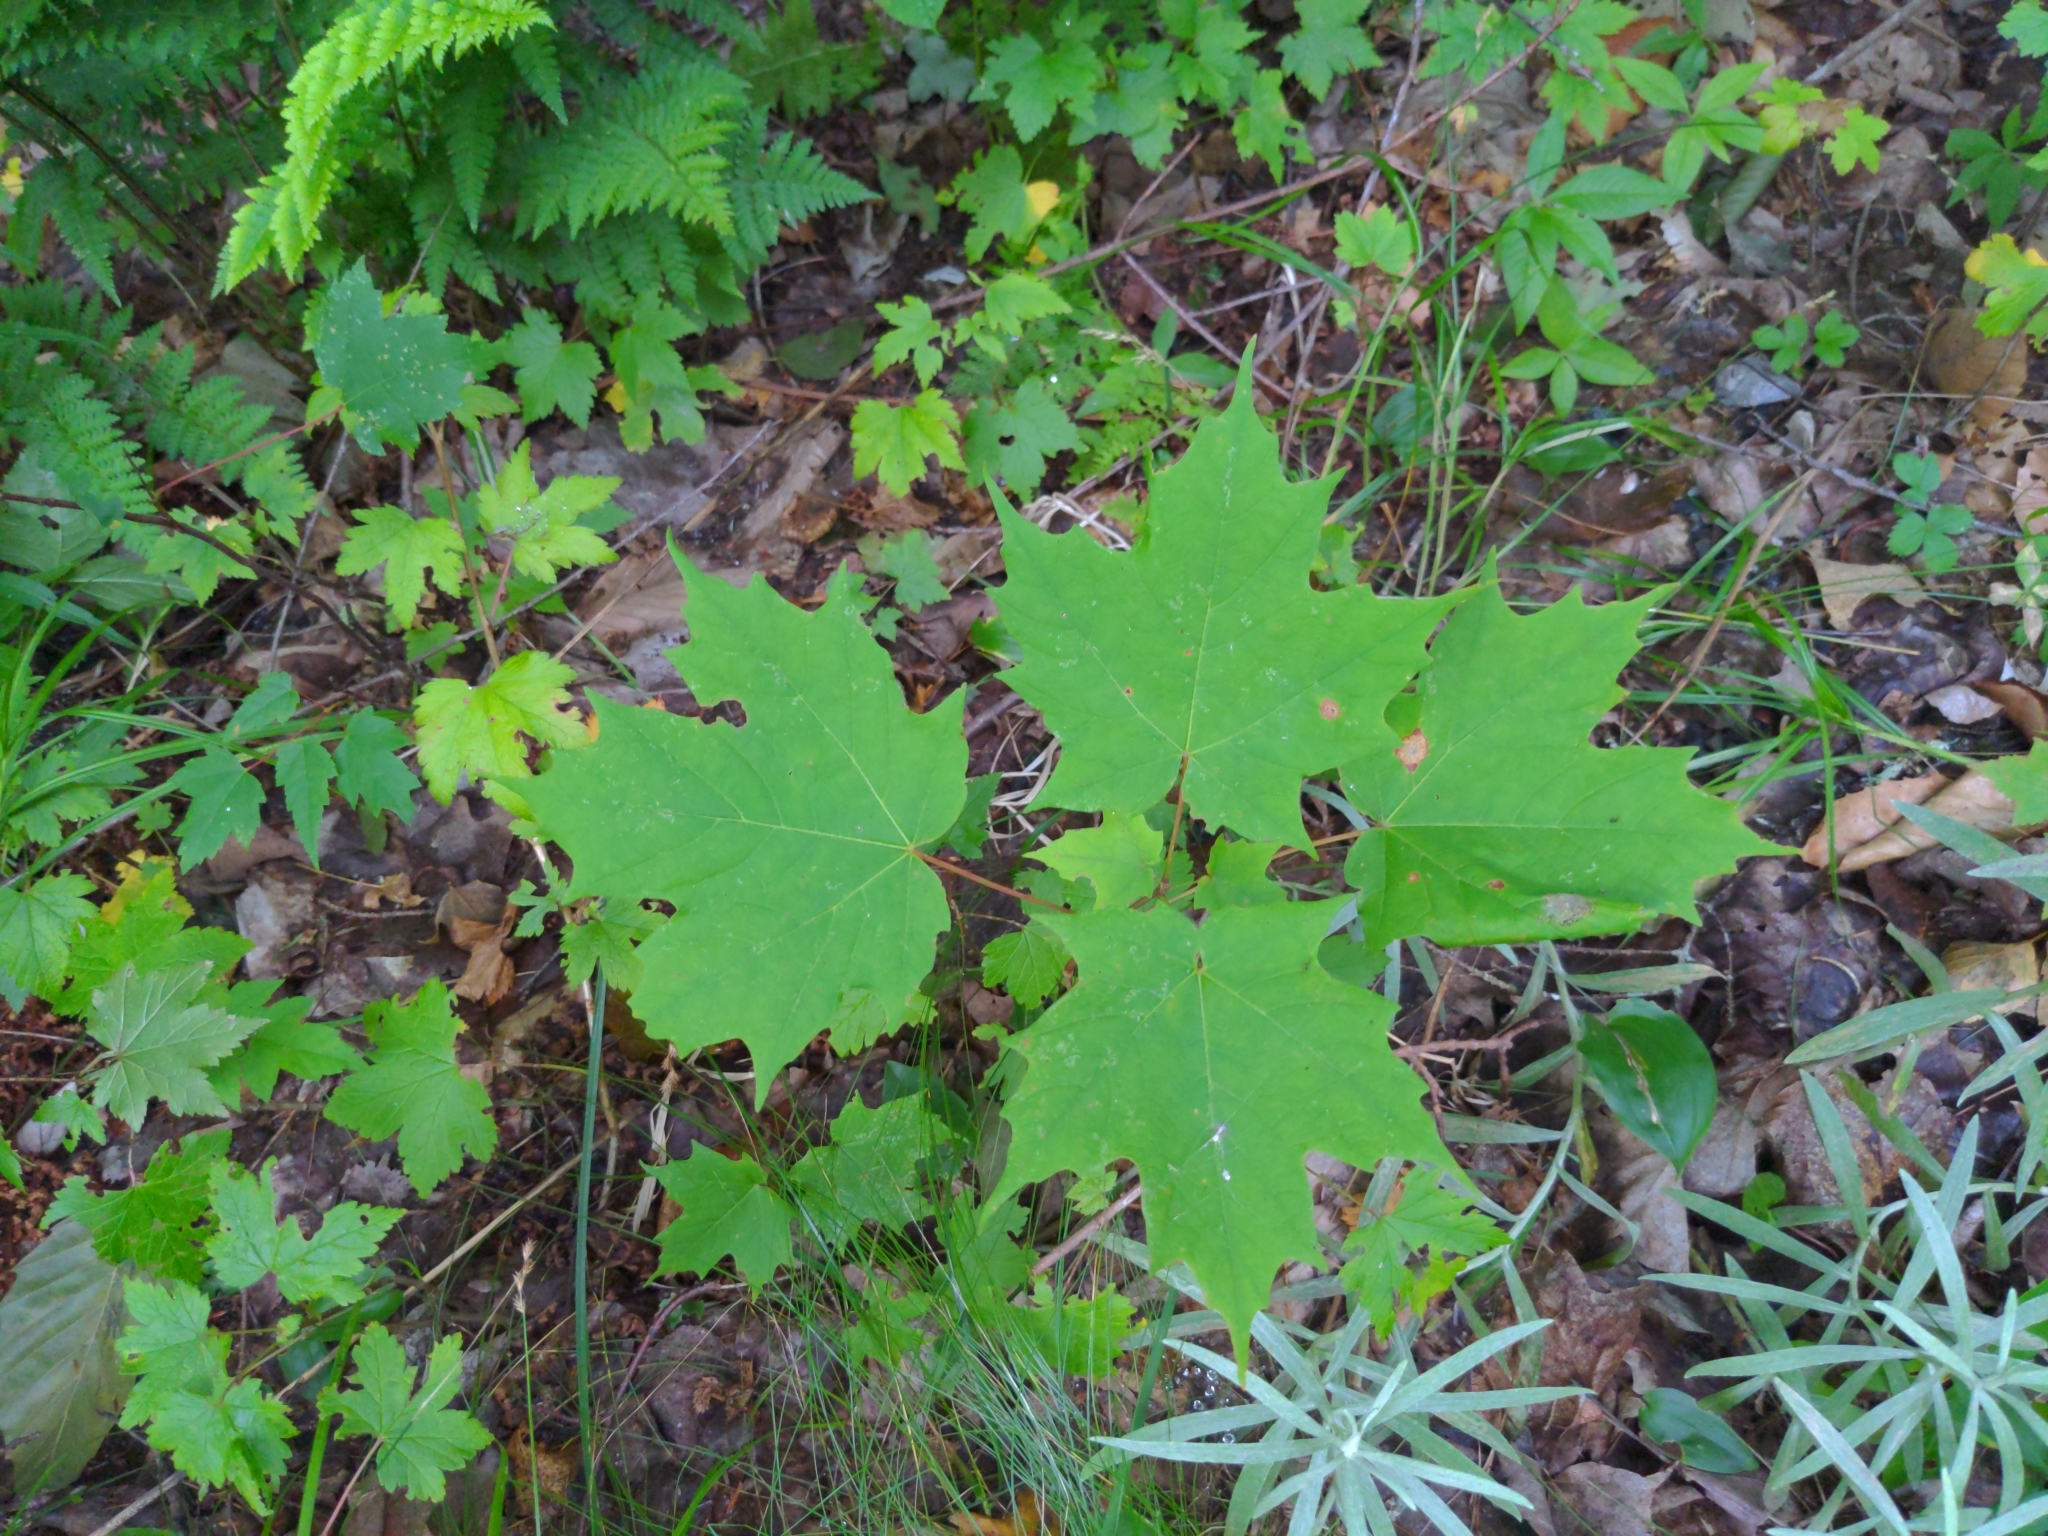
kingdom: Plantae
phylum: Tracheophyta
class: Magnoliopsida
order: Sapindales
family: Sapindaceae
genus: Acer
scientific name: Acer saccharum
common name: Sugar maple
